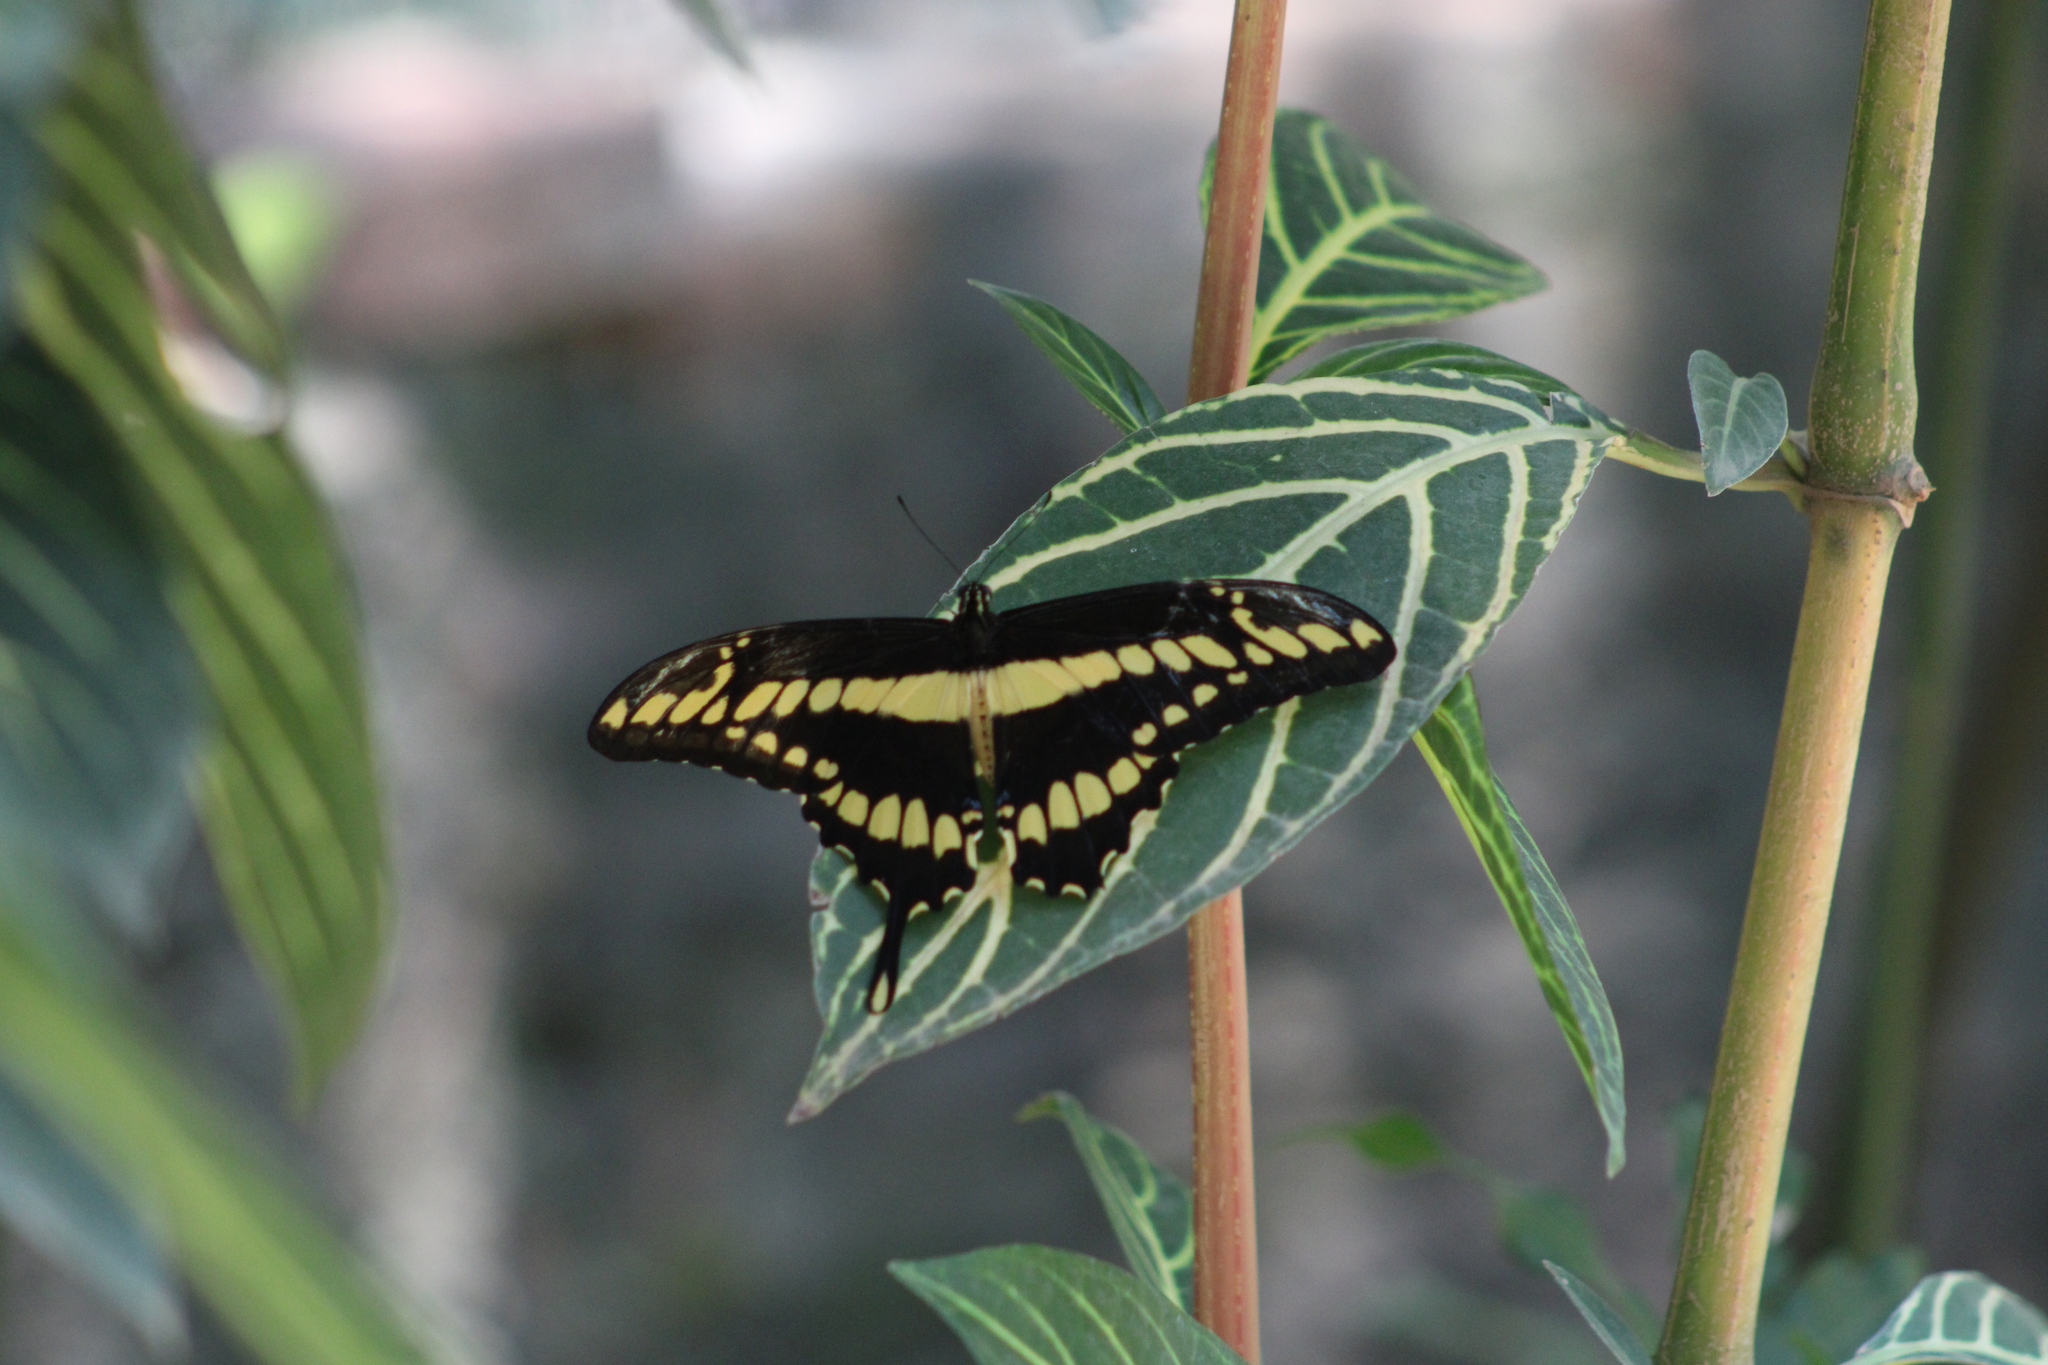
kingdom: Animalia
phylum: Arthropoda
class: Insecta
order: Lepidoptera
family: Papilionidae
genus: Papilio
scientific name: Papilio thoas
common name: King swallowtail
